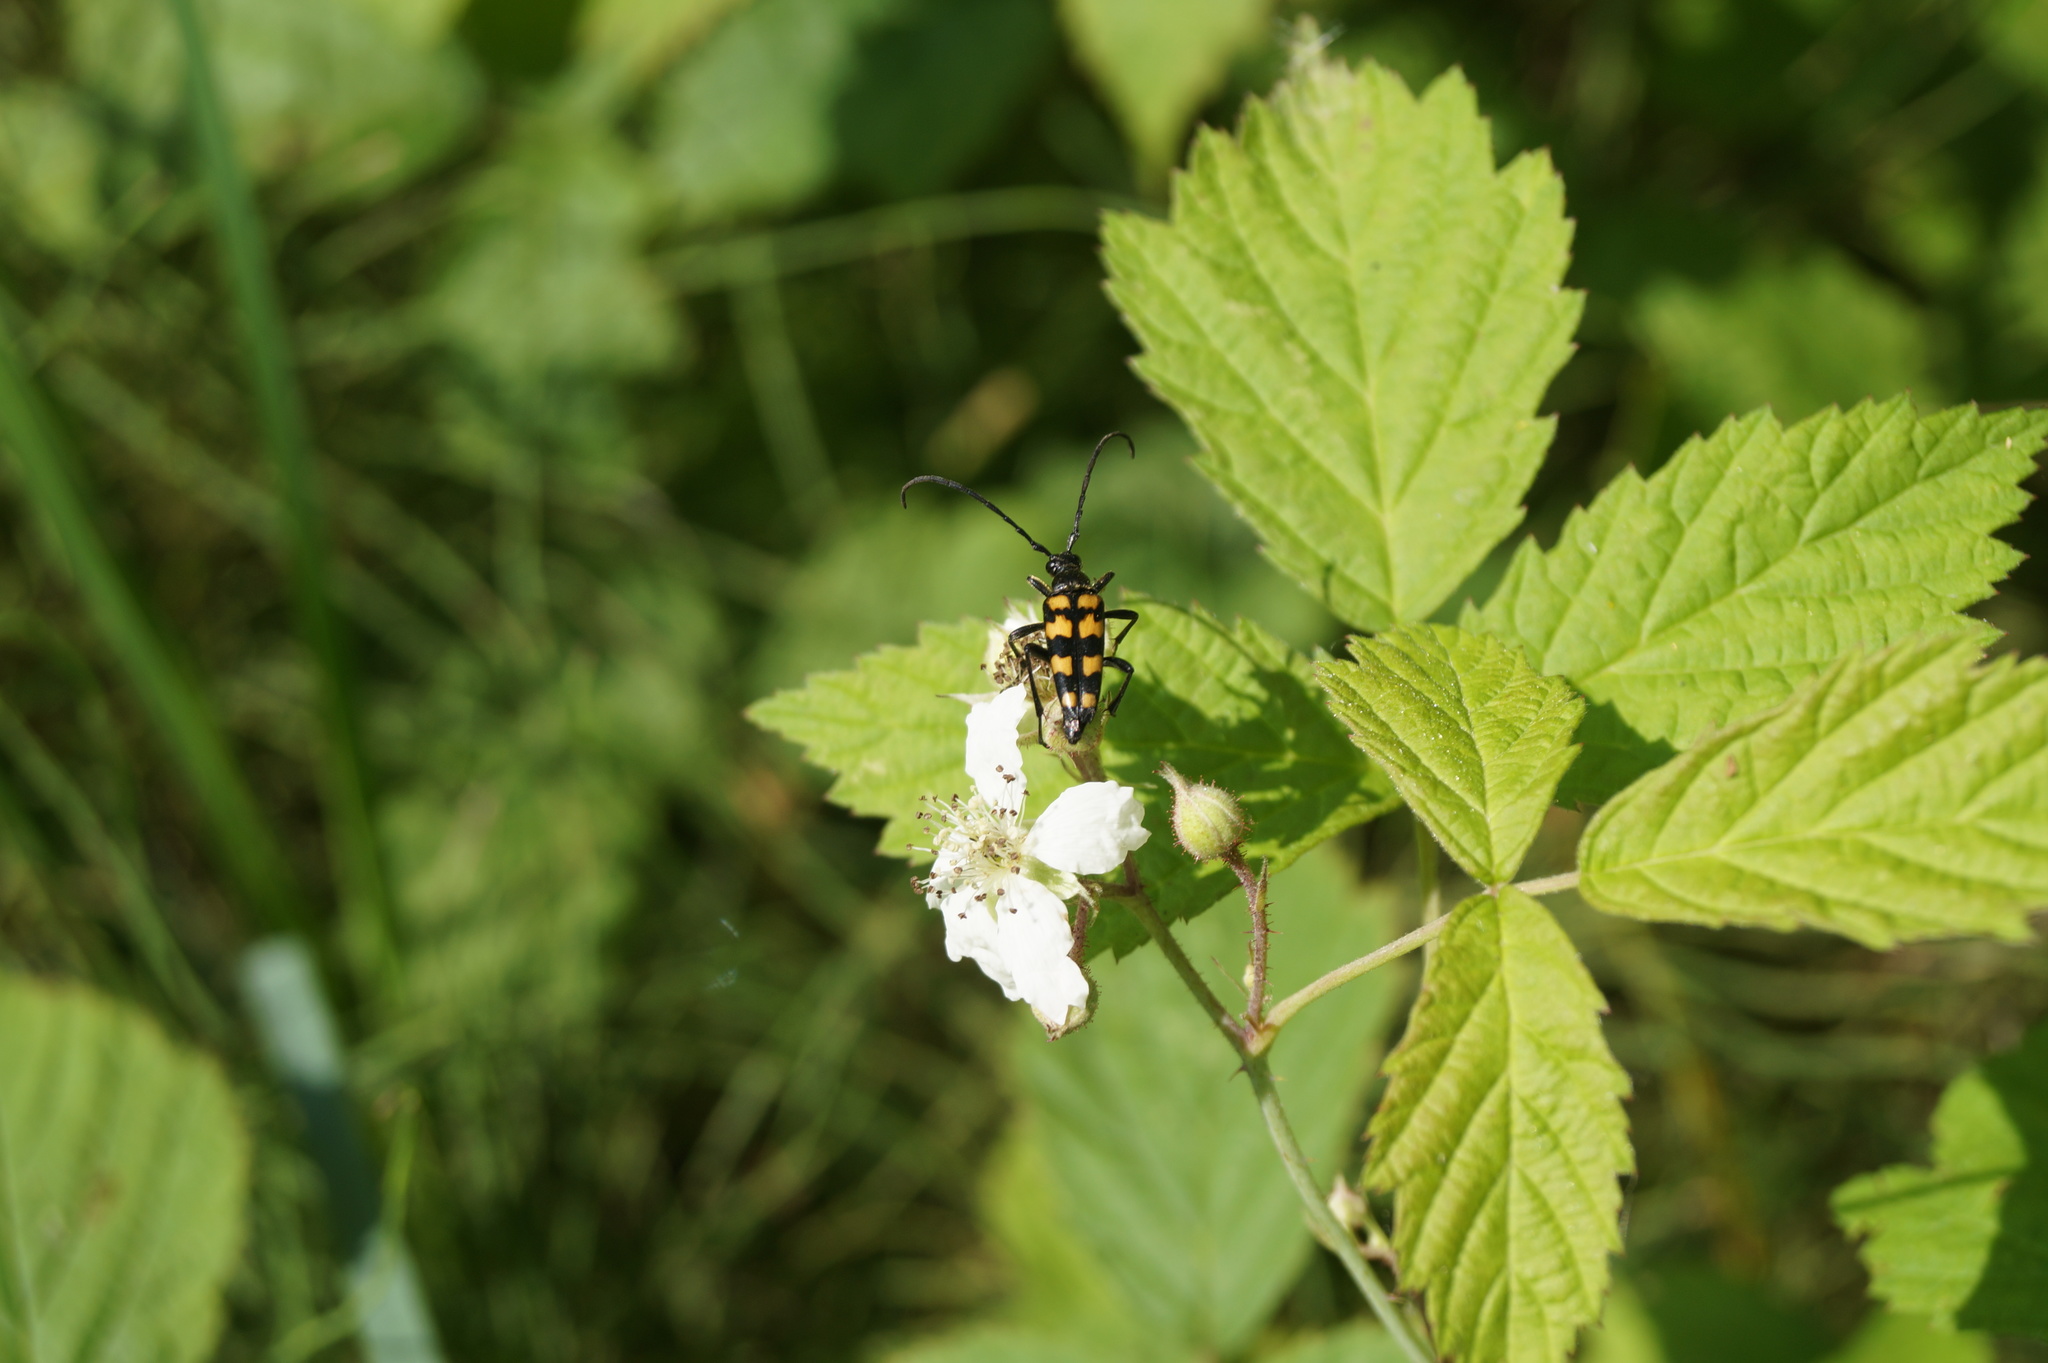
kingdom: Animalia
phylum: Arthropoda
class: Insecta
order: Coleoptera
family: Cerambycidae
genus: Leptura
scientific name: Leptura quadrifasciata
